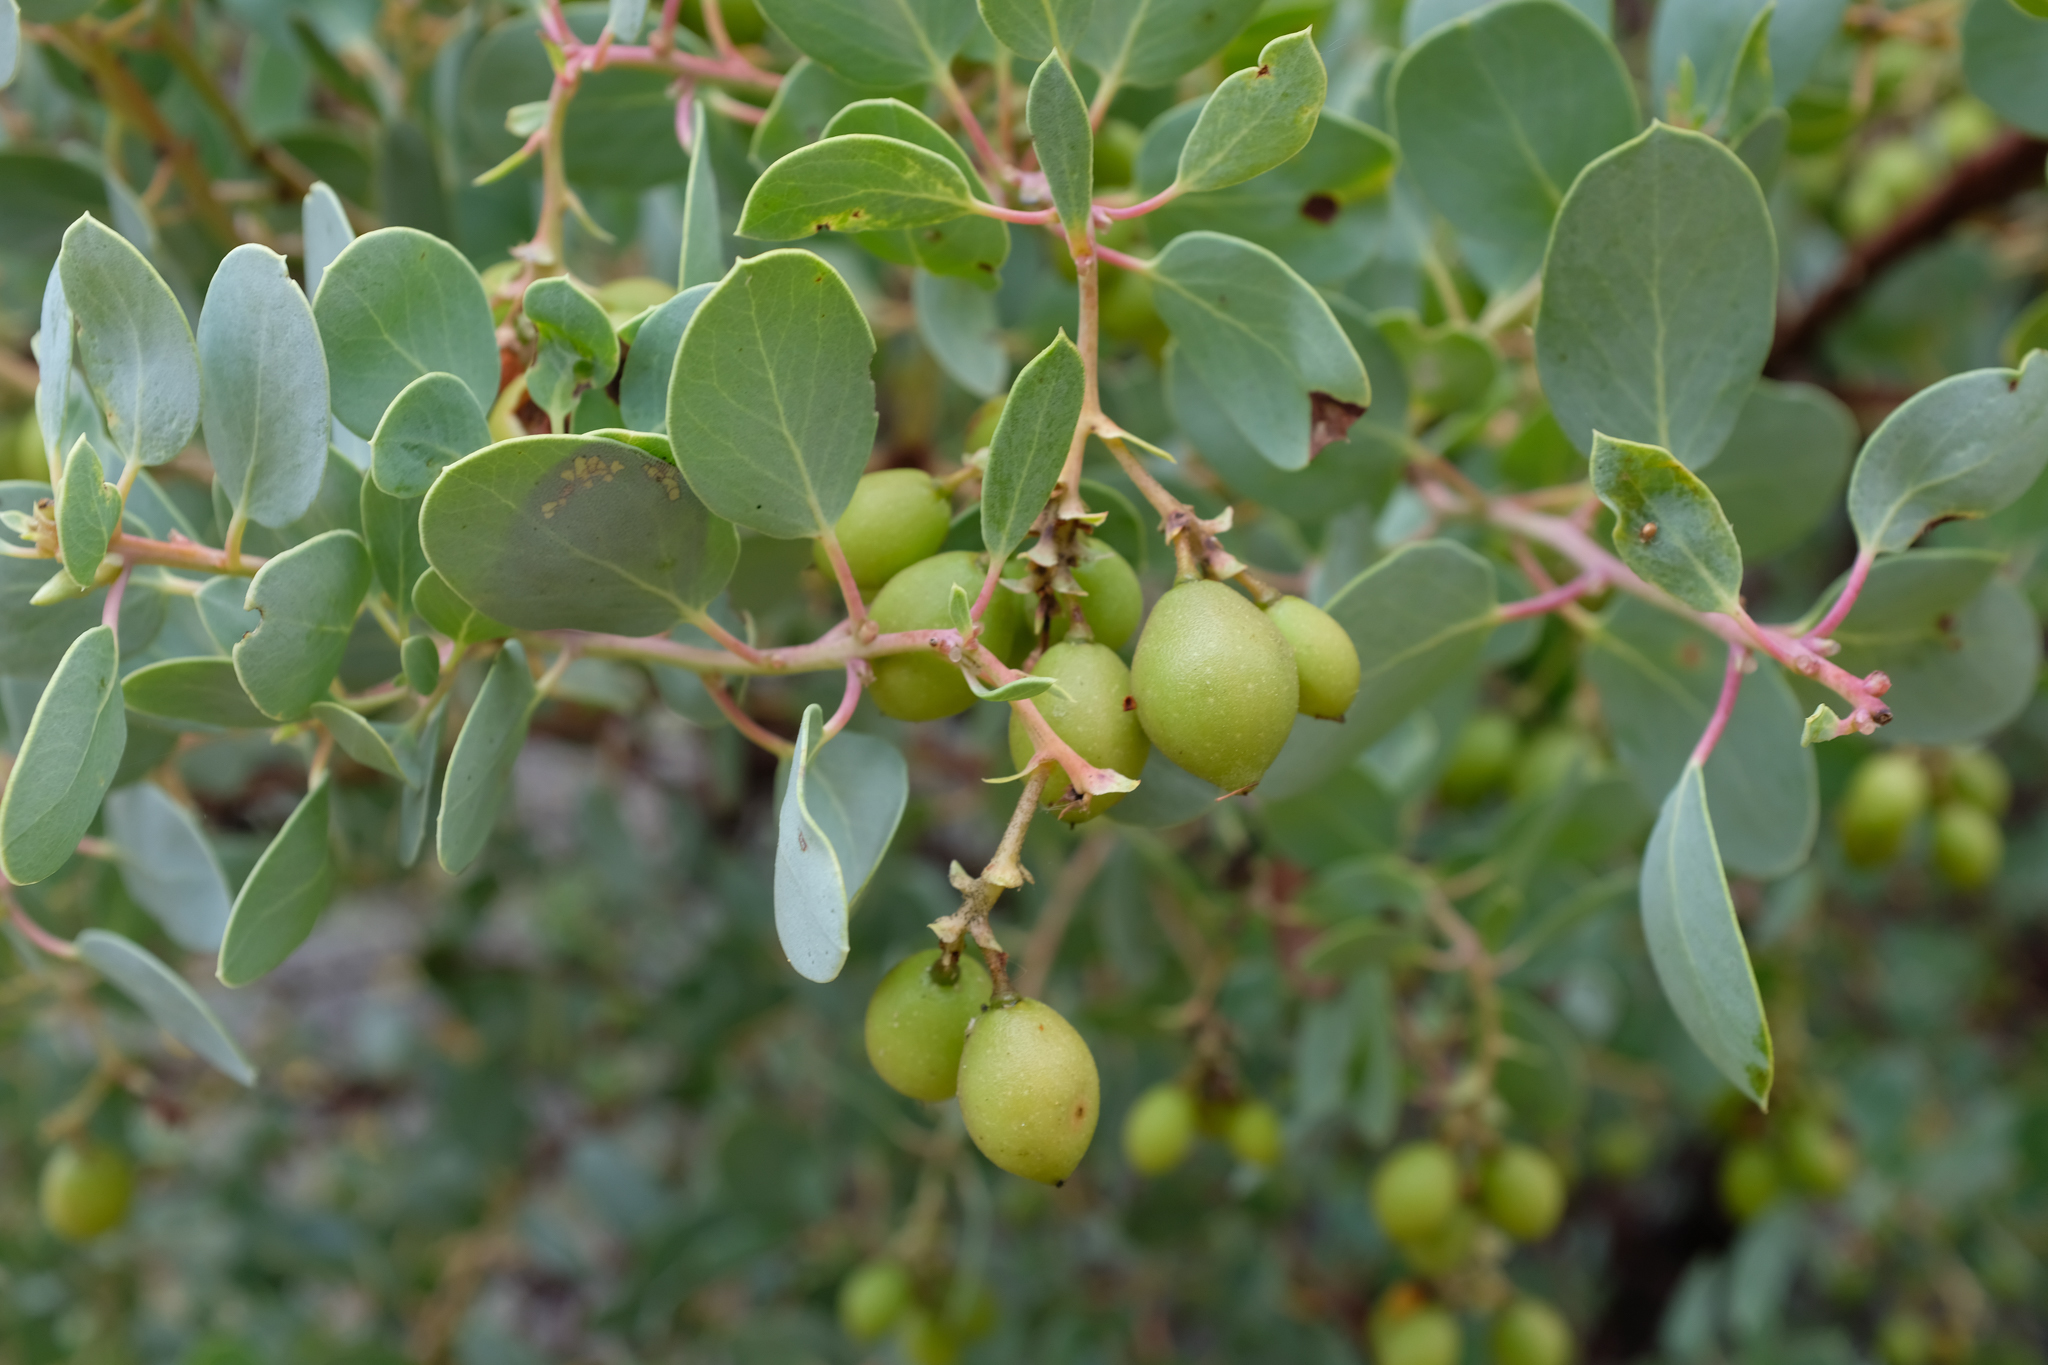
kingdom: Plantae
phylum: Tracheophyta
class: Magnoliopsida
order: Ericales
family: Ericaceae
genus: Arctostaphylos
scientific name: Arctostaphylos glauca
